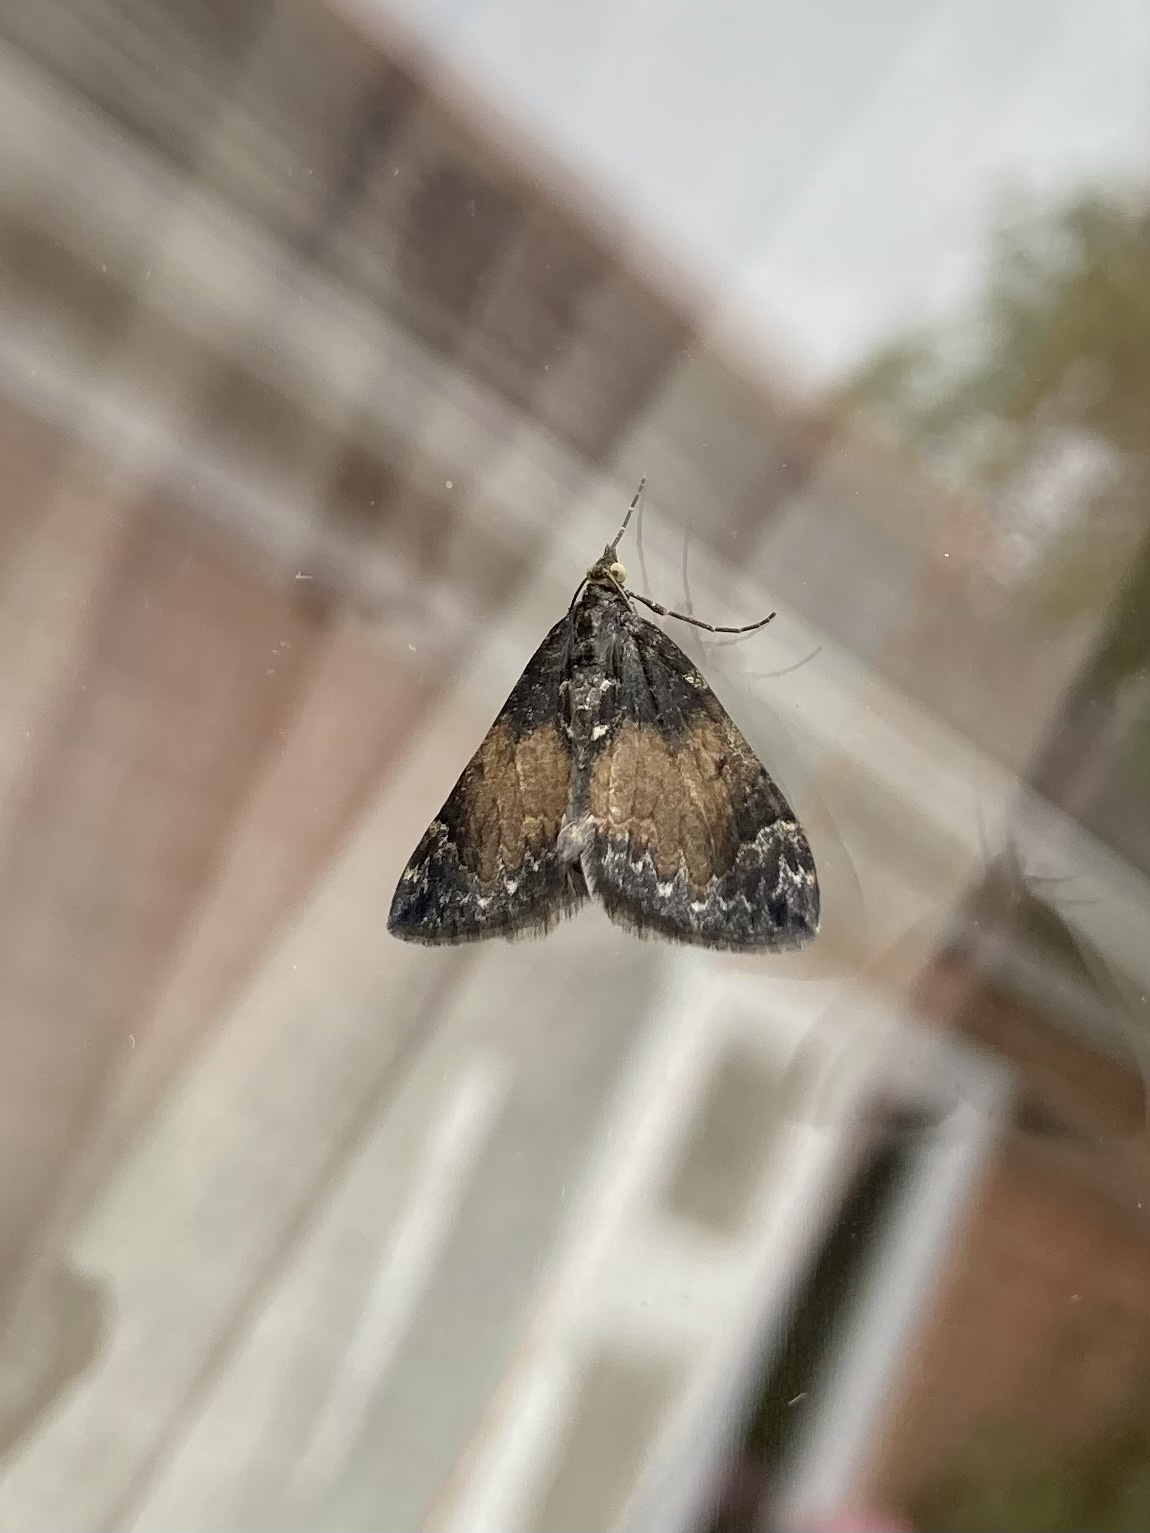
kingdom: Animalia
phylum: Arthropoda
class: Insecta
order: Lepidoptera
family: Geometridae
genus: Dysstroma
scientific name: Dysstroma truncata
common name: Common marbled carpet
